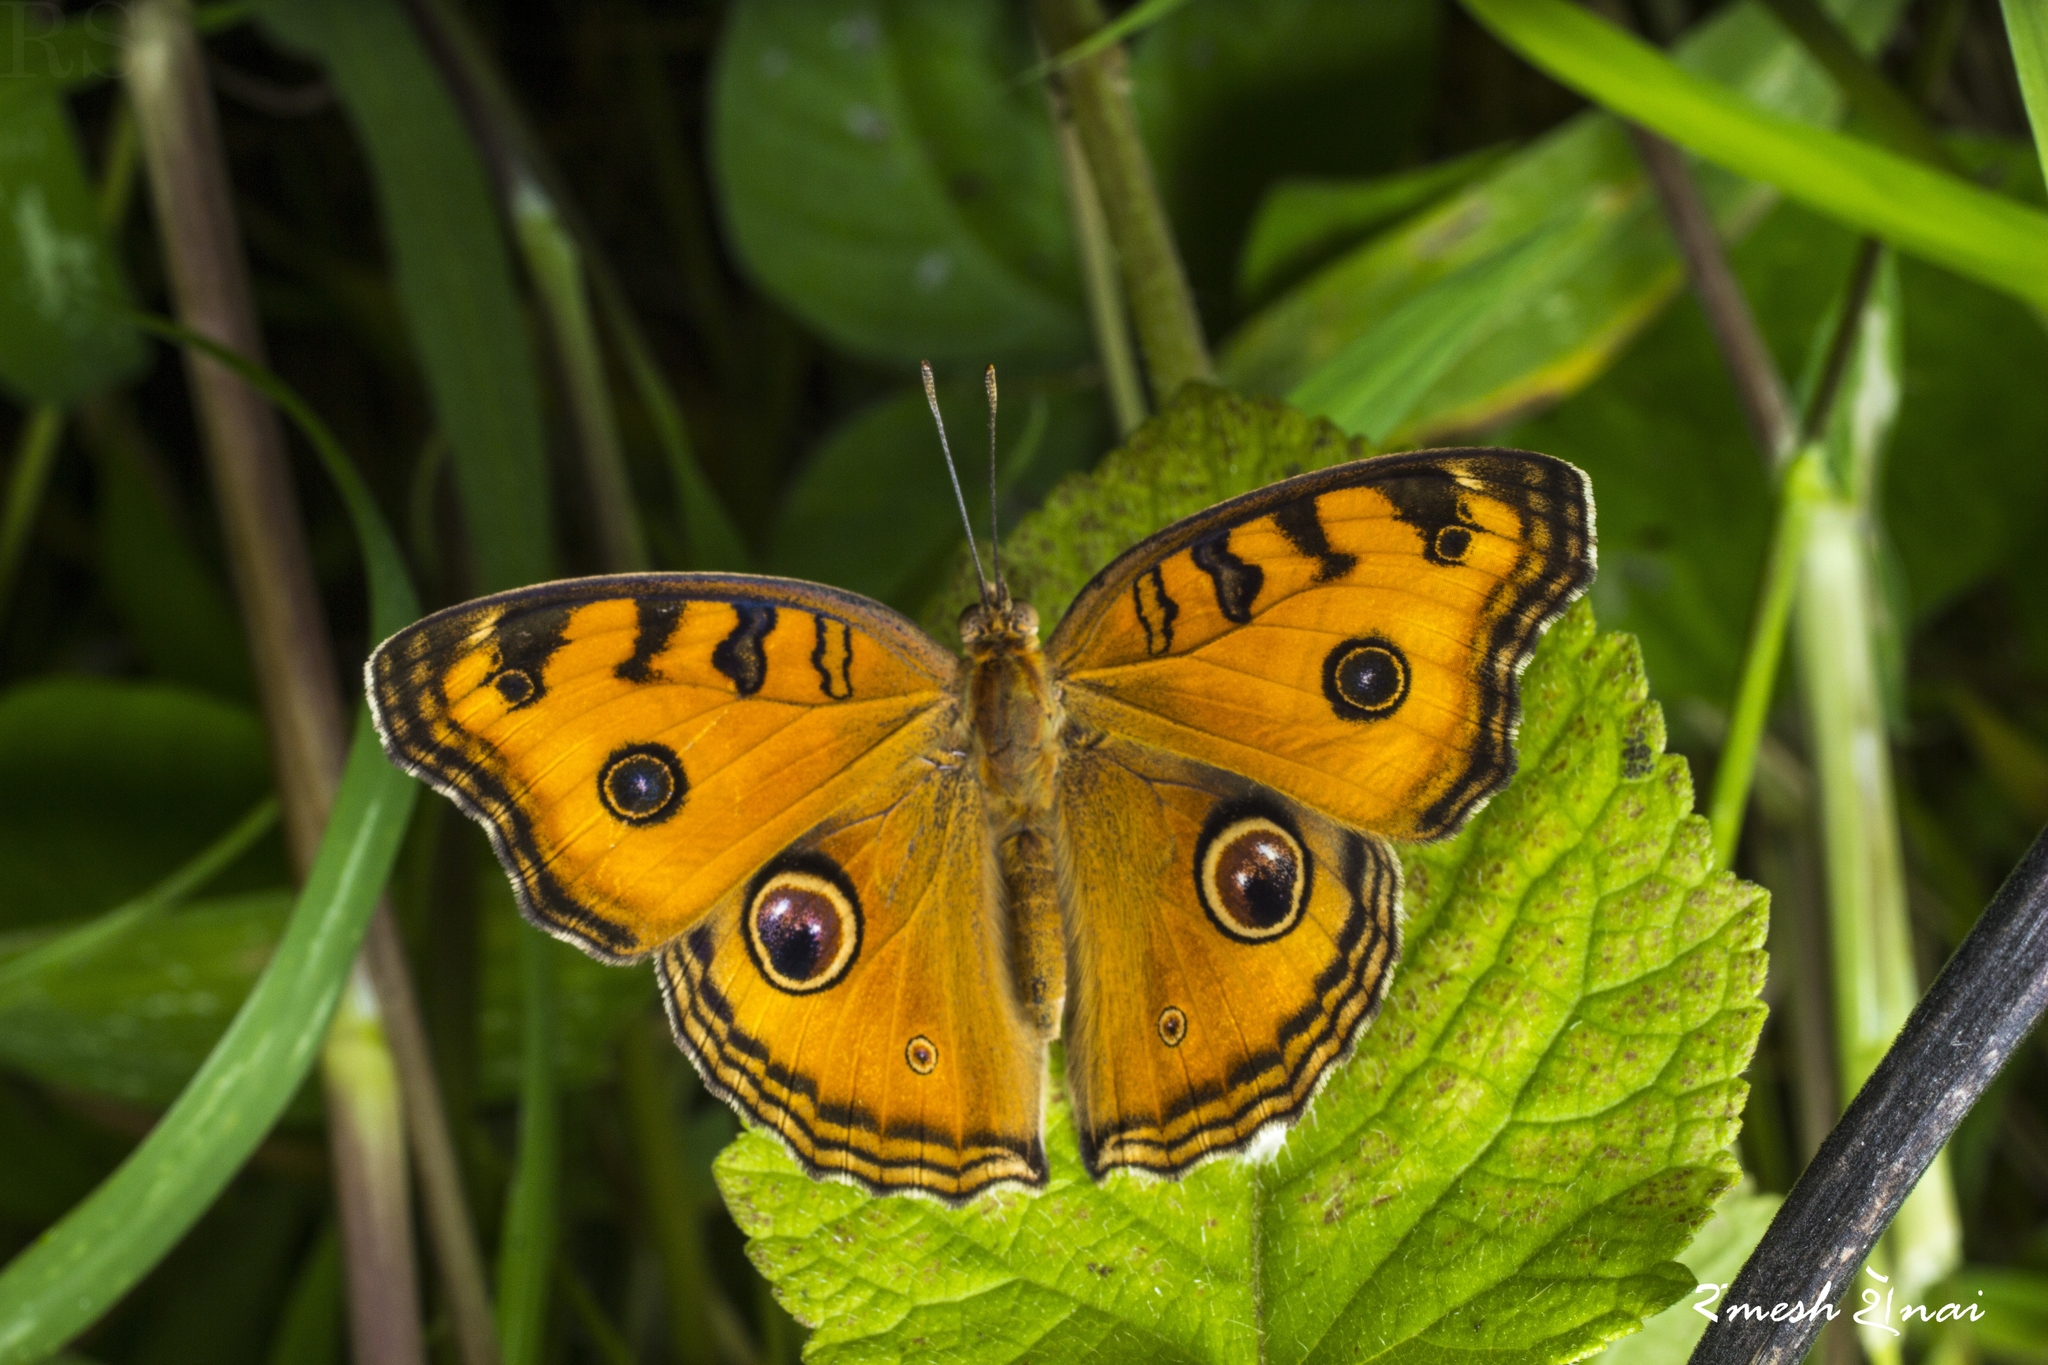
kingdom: Animalia
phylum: Arthropoda
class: Insecta
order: Lepidoptera
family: Nymphalidae
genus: Junonia
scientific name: Junonia almana
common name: Peacock pansy
